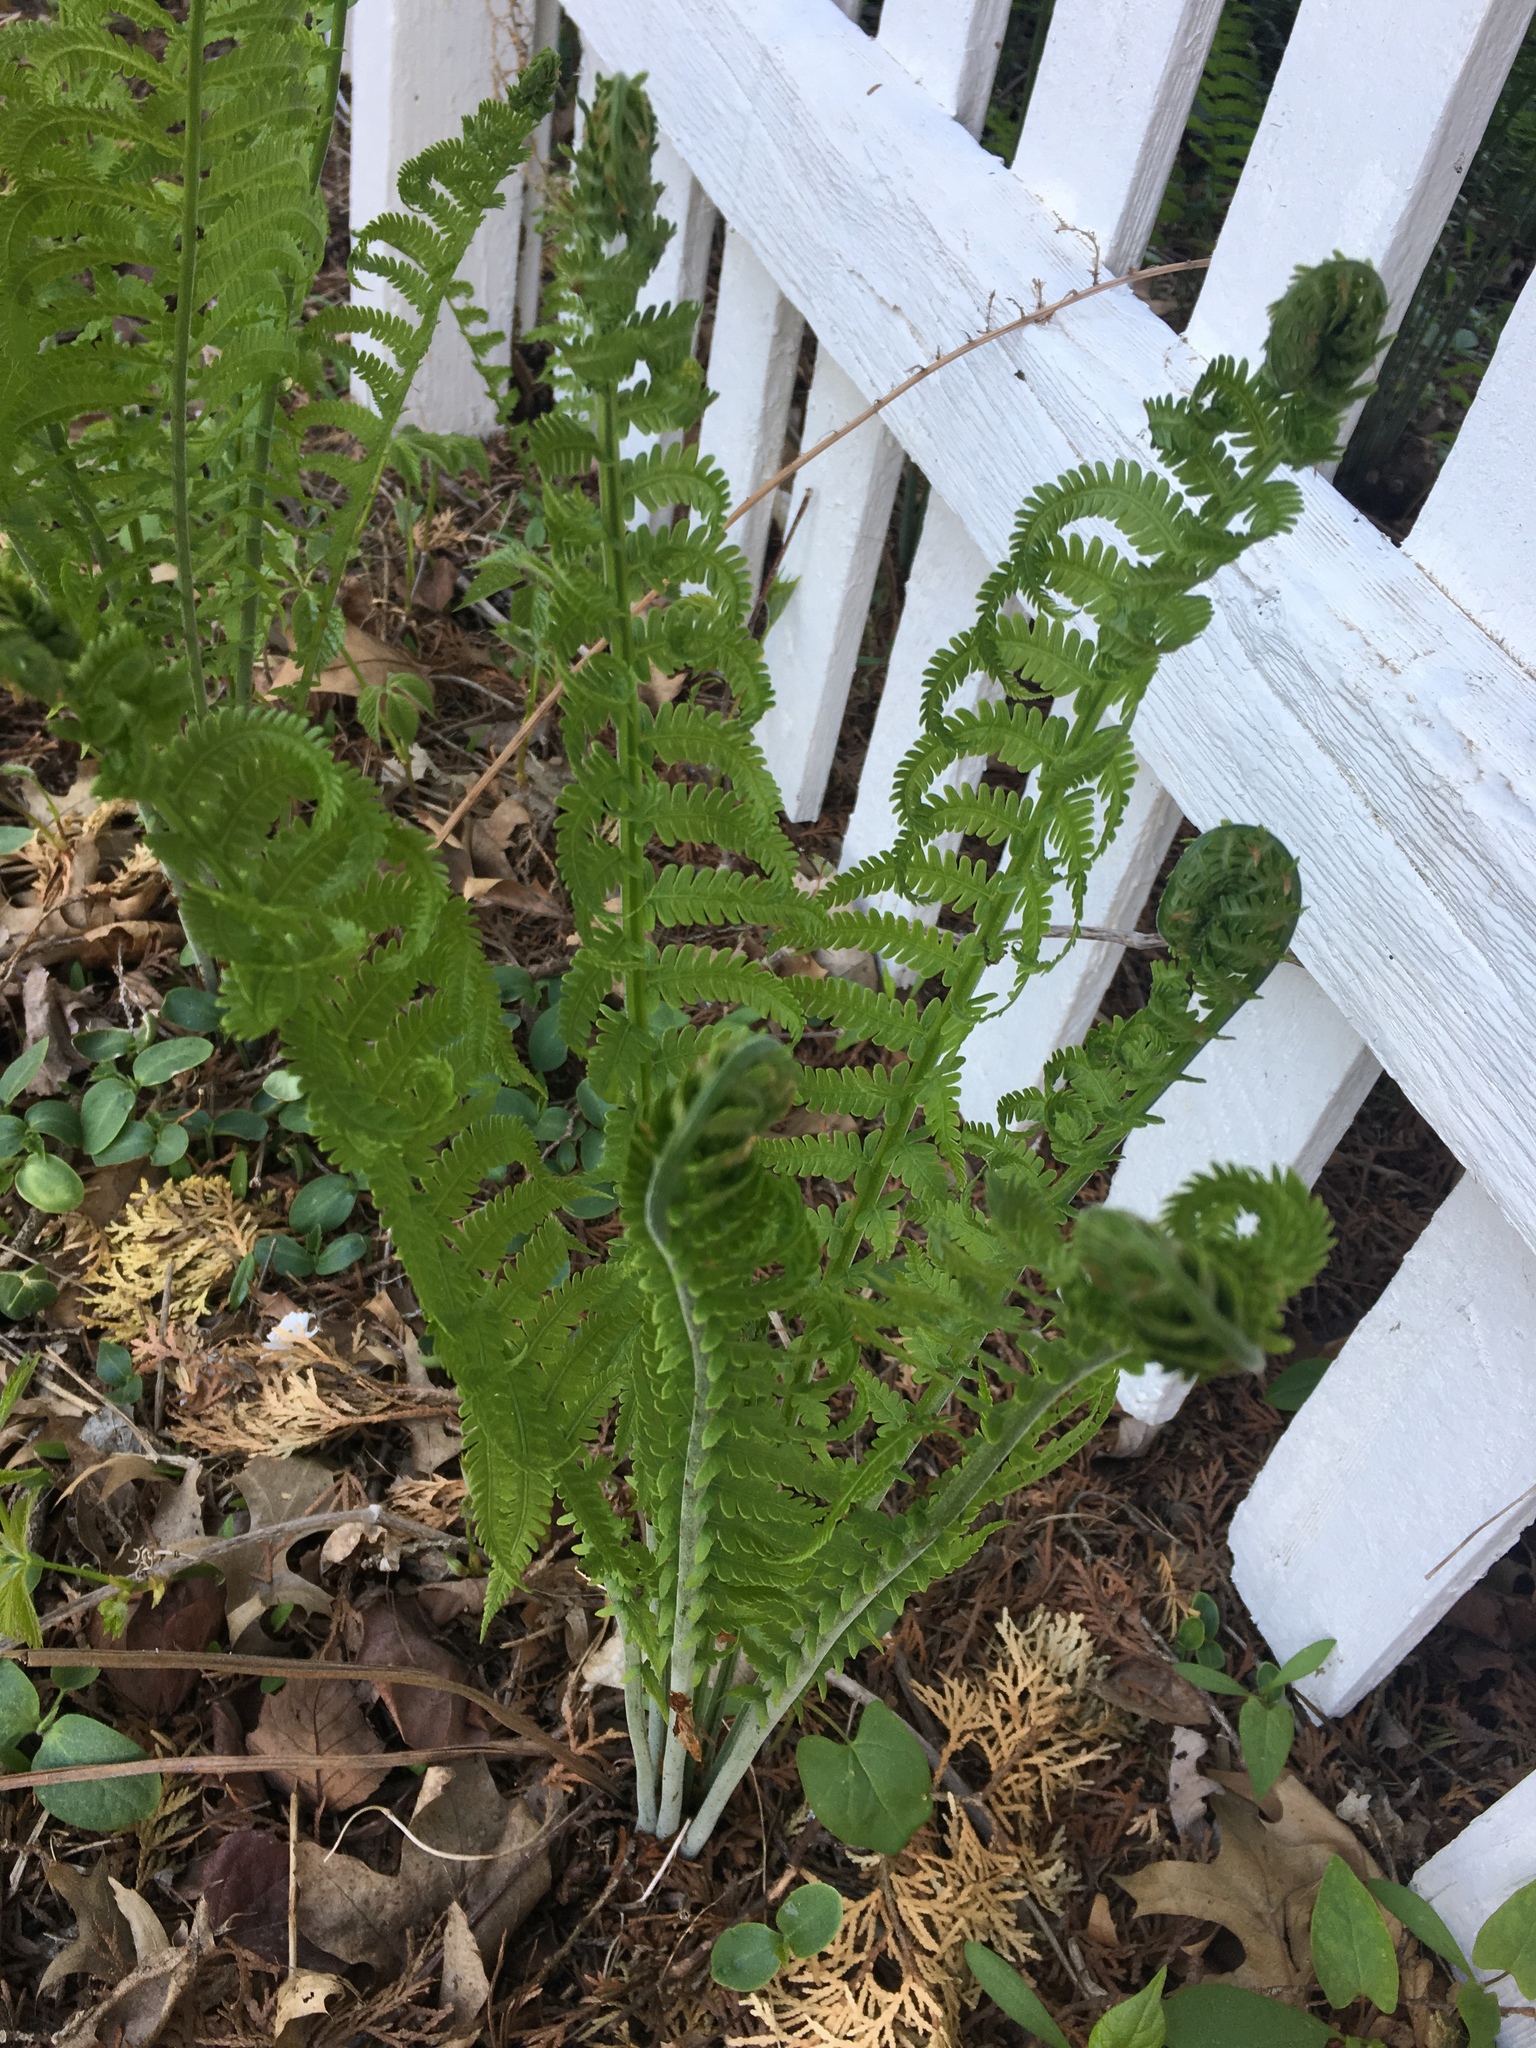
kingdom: Plantae
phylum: Tracheophyta
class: Polypodiopsida
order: Polypodiales
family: Onocleaceae
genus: Matteuccia
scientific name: Matteuccia struthiopteris
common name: Ostrich fern
